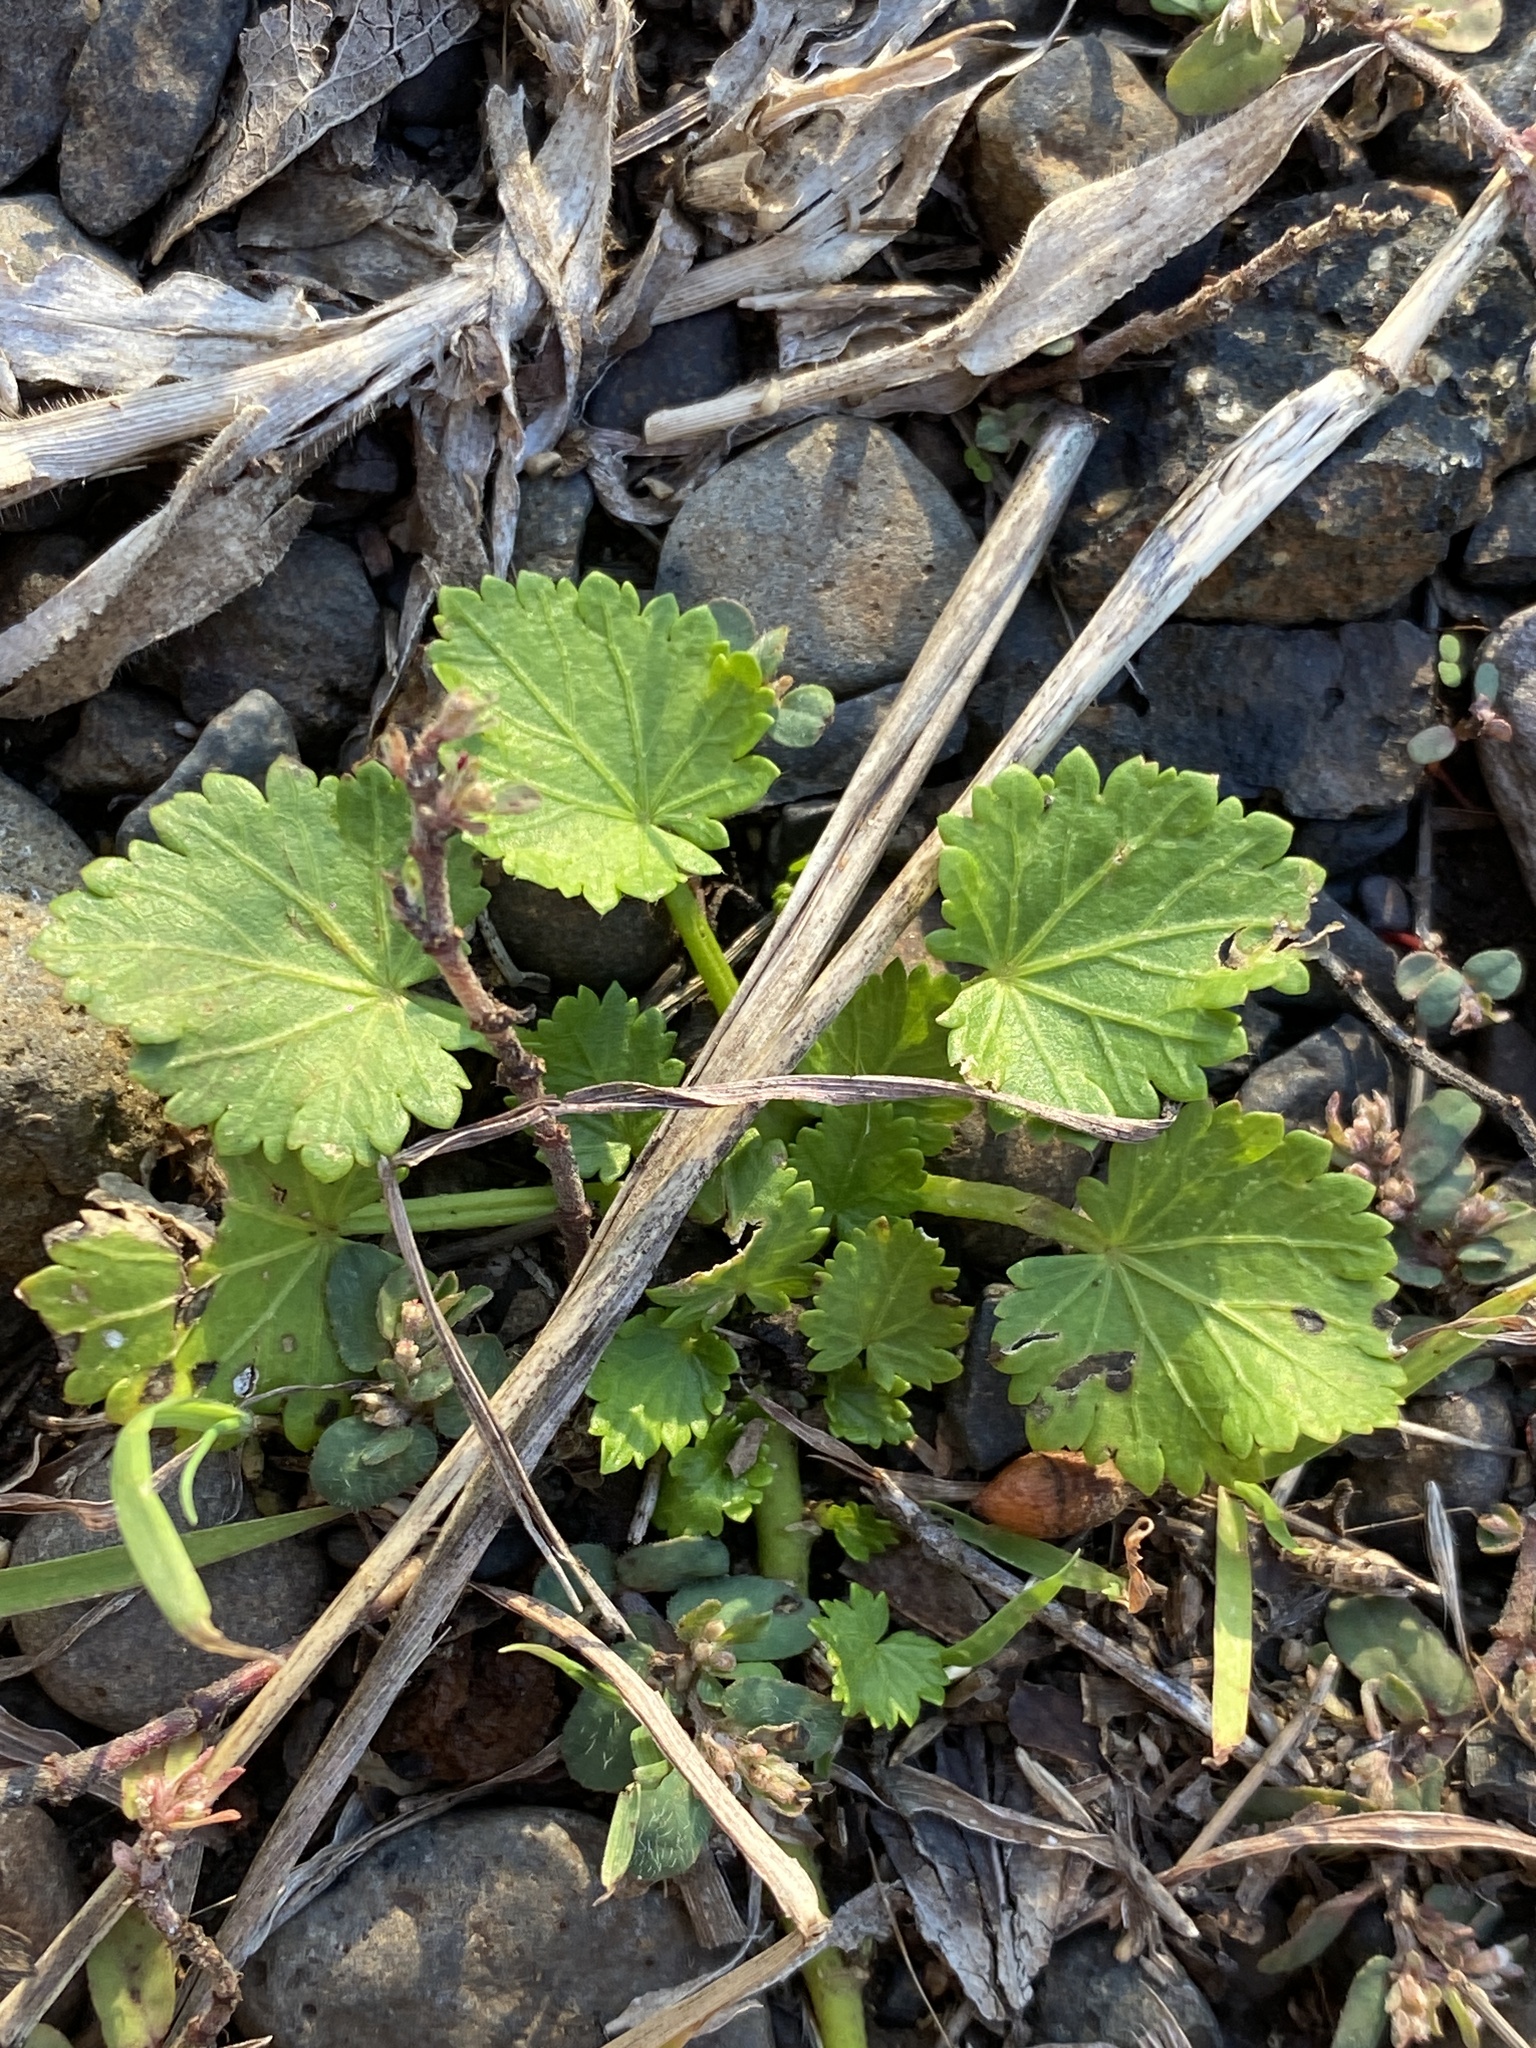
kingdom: Plantae
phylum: Tracheophyta
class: Magnoliopsida
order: Malvales
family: Malvaceae
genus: Modiola
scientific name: Modiola caroliniana
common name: Carolina bristlemallow
